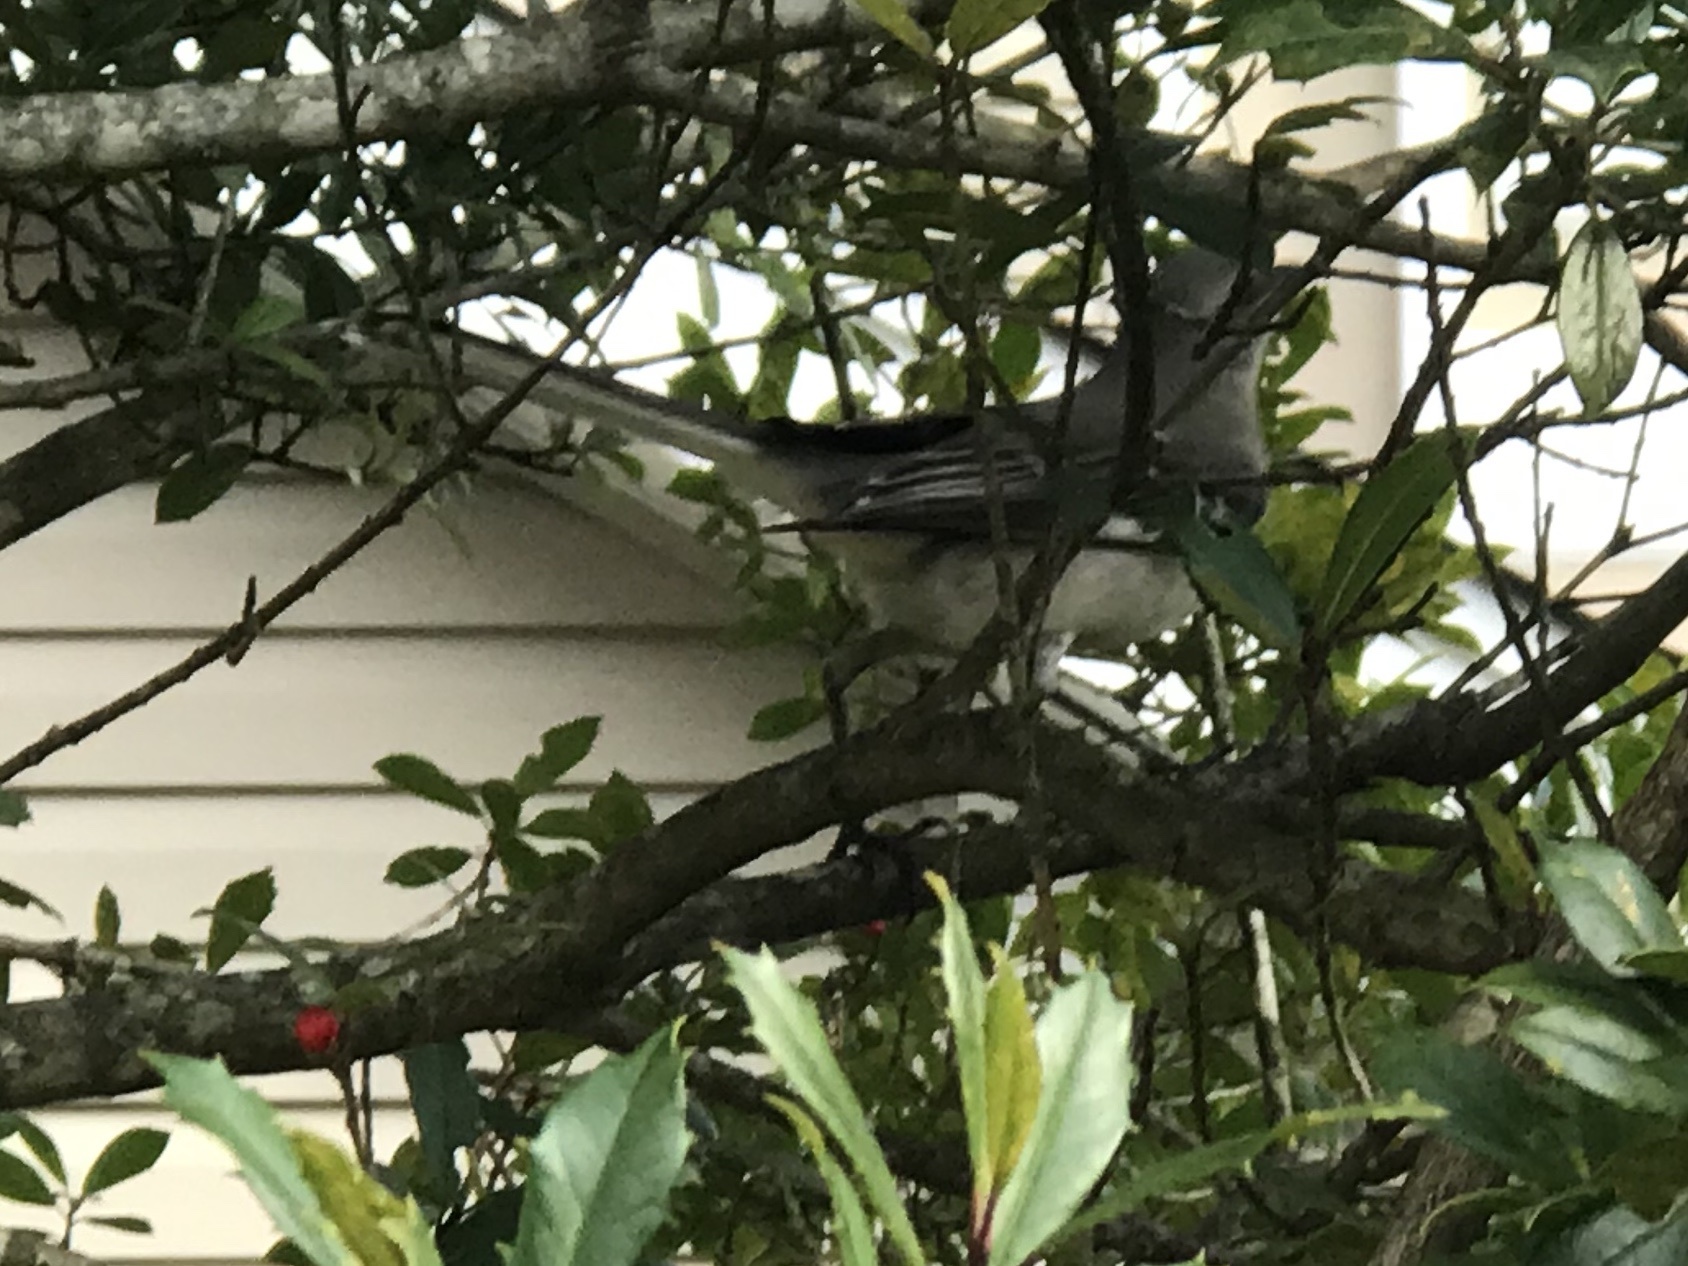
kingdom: Animalia
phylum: Chordata
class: Aves
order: Passeriformes
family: Mimidae
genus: Mimus
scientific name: Mimus polyglottos
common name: Northern mockingbird
